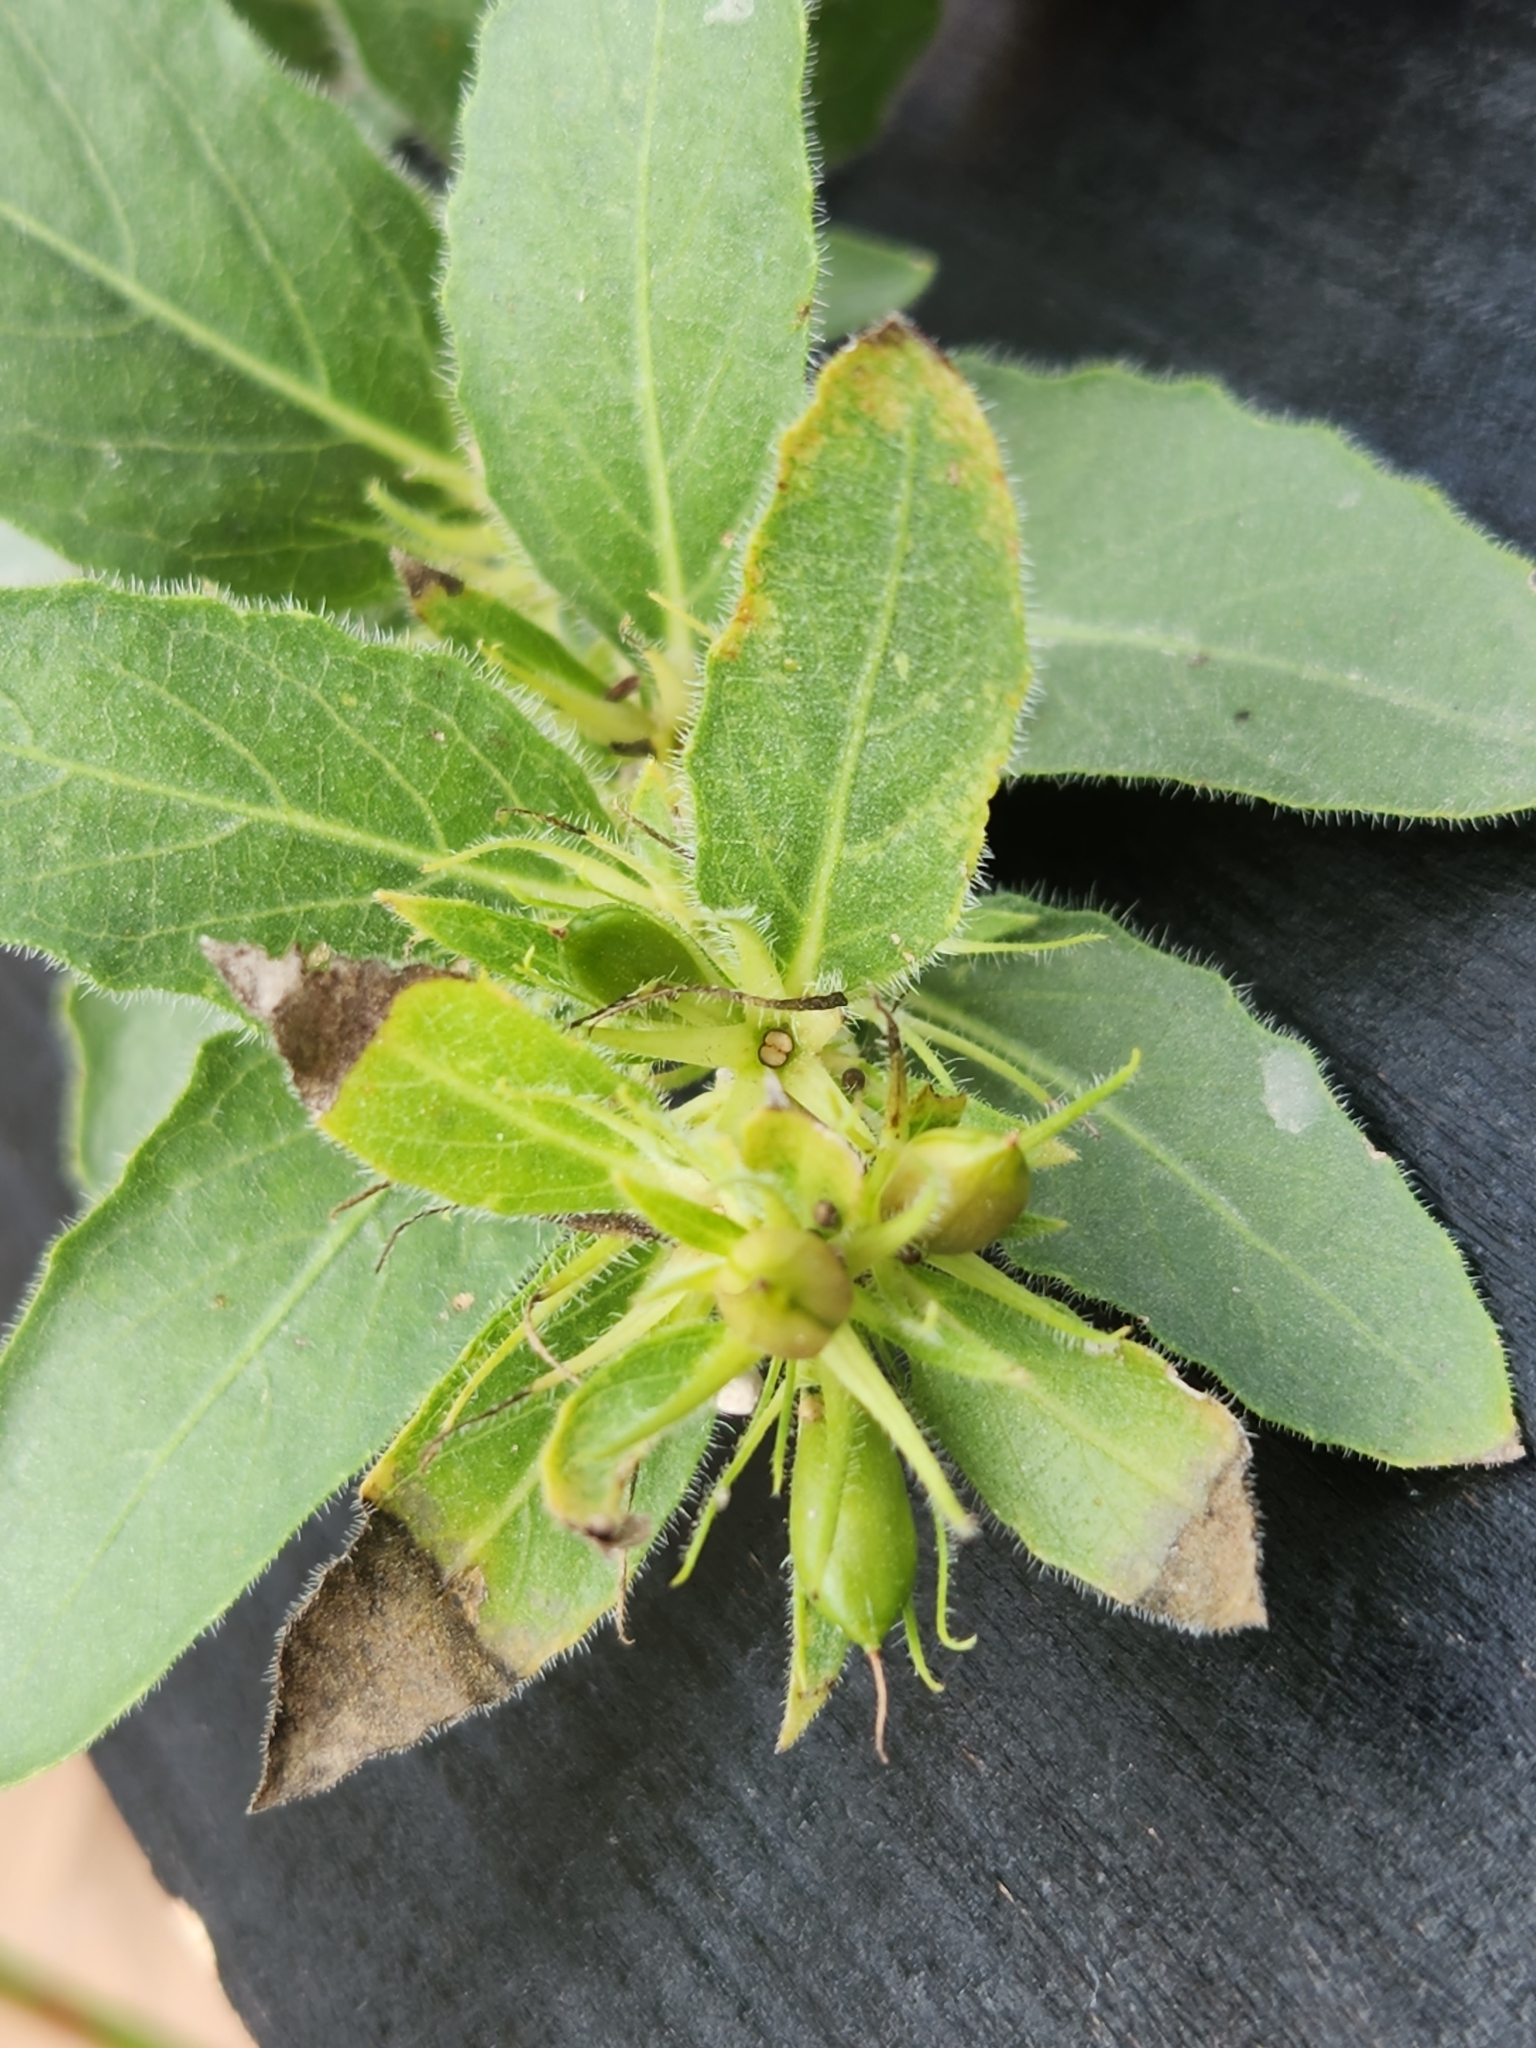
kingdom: Plantae
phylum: Tracheophyta
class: Magnoliopsida
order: Lamiales
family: Acanthaceae
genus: Ruellia
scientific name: Ruellia humilis
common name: Fringe-leaf ruellia
